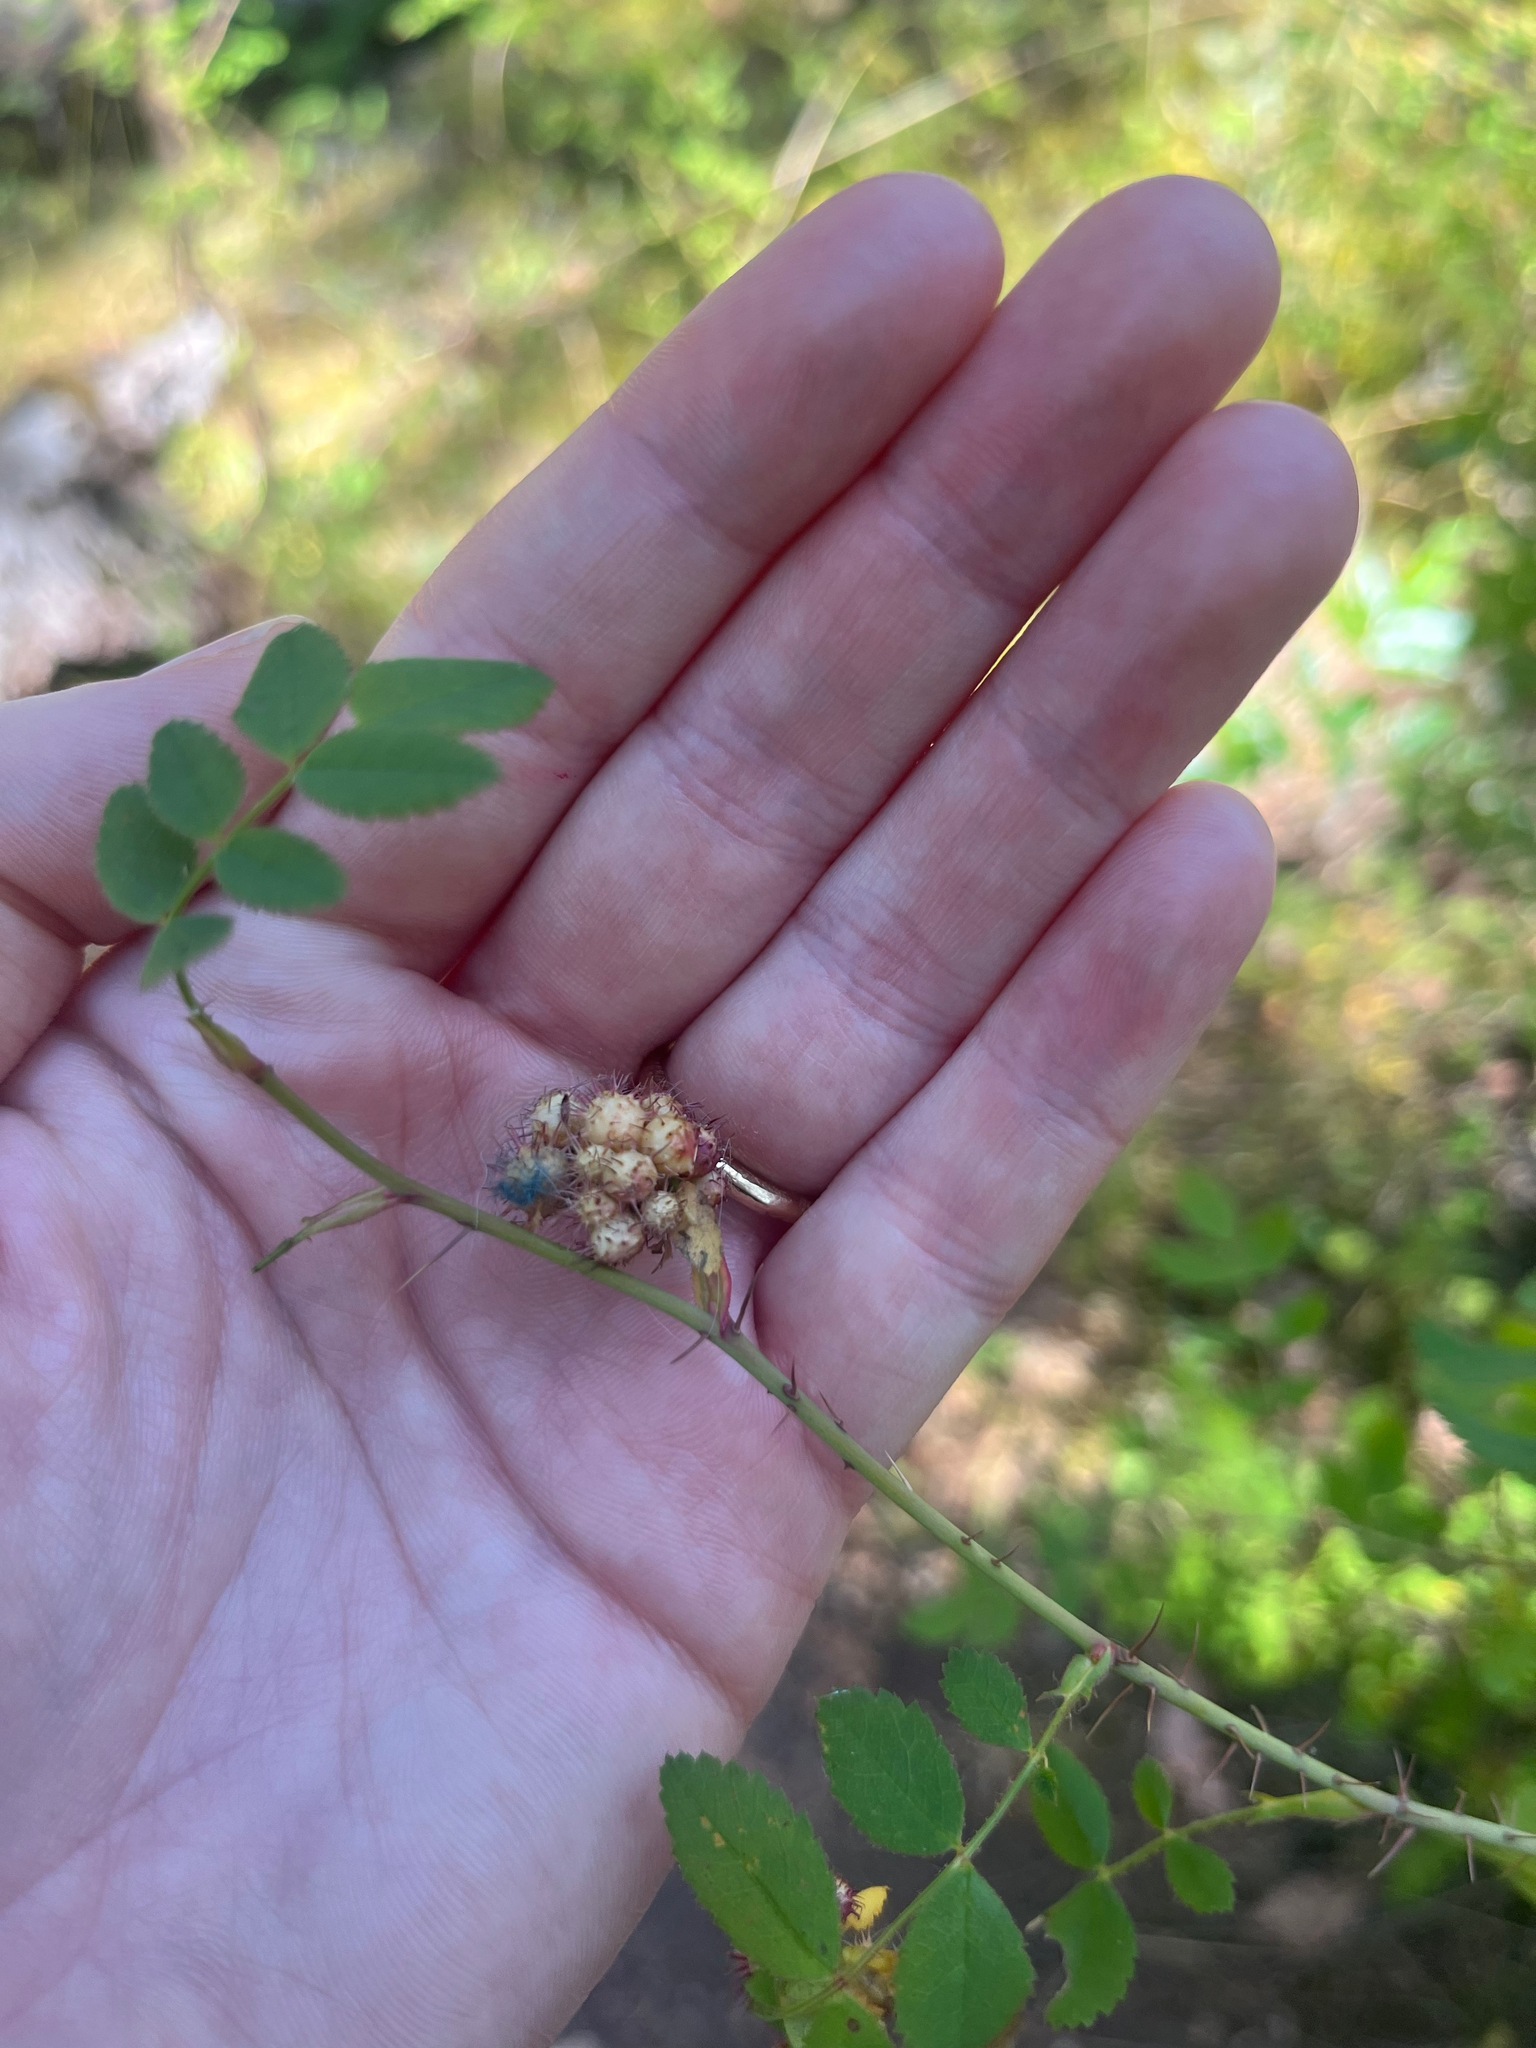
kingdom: Animalia
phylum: Arthropoda
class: Insecta
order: Hymenoptera
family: Cynipidae
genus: Diplolepis
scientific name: Diplolepis polita
